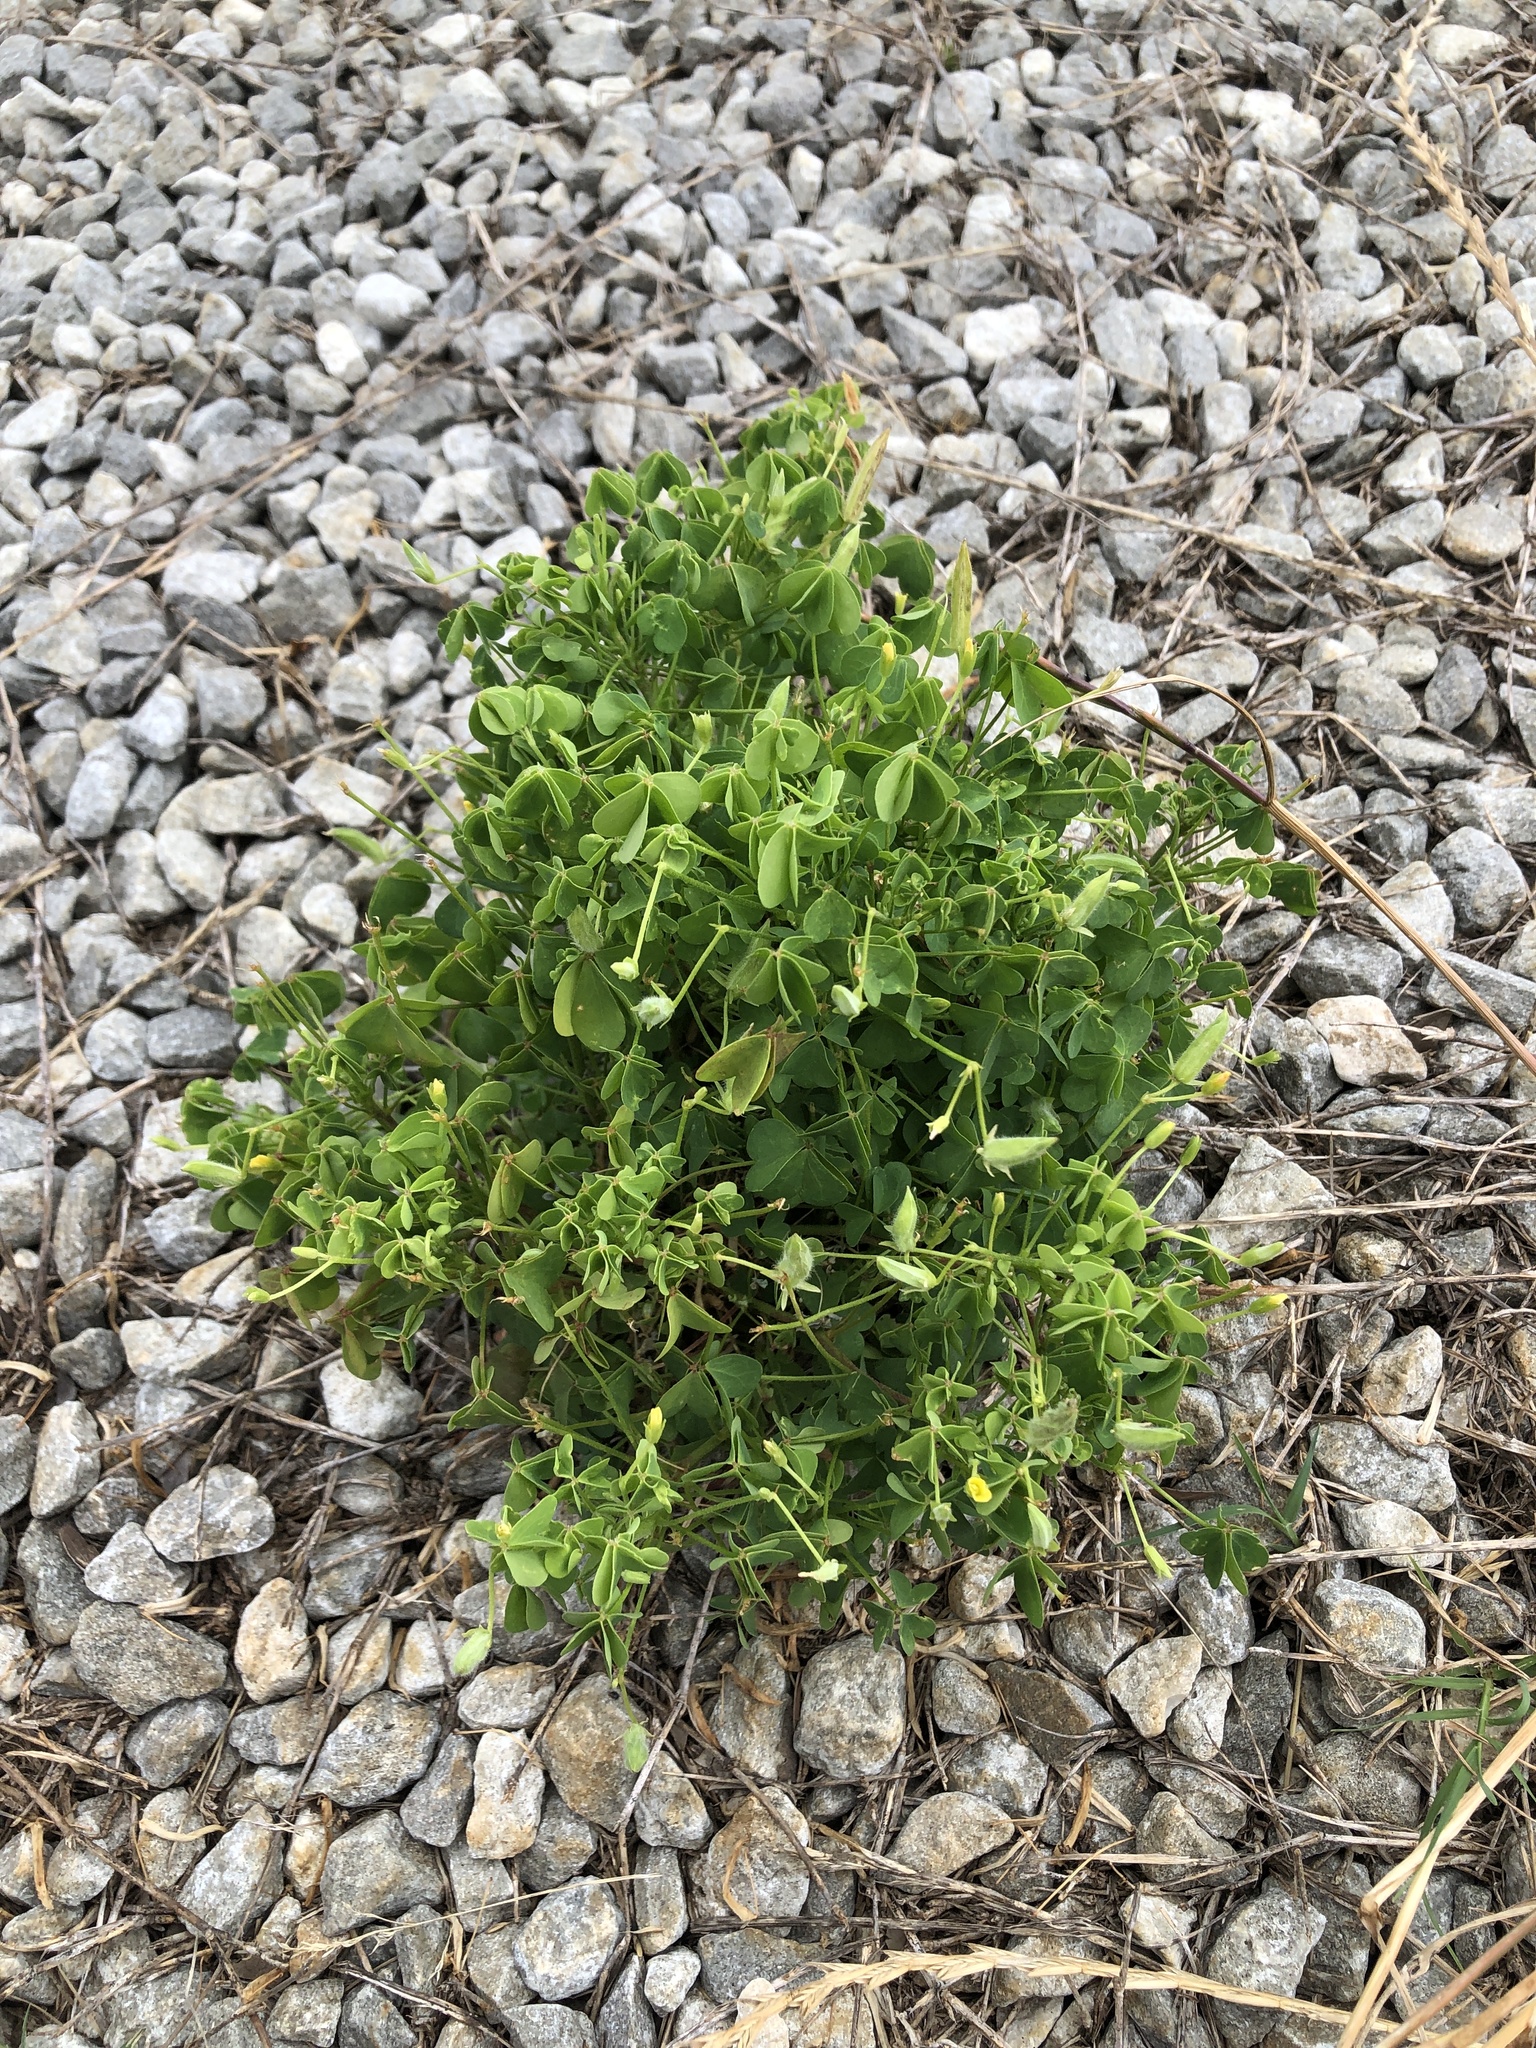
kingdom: Plantae
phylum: Tracheophyta
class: Magnoliopsida
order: Oxalidales
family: Oxalidaceae
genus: Oxalis
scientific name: Oxalis dillenii
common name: Sussex yellow-sorrel
